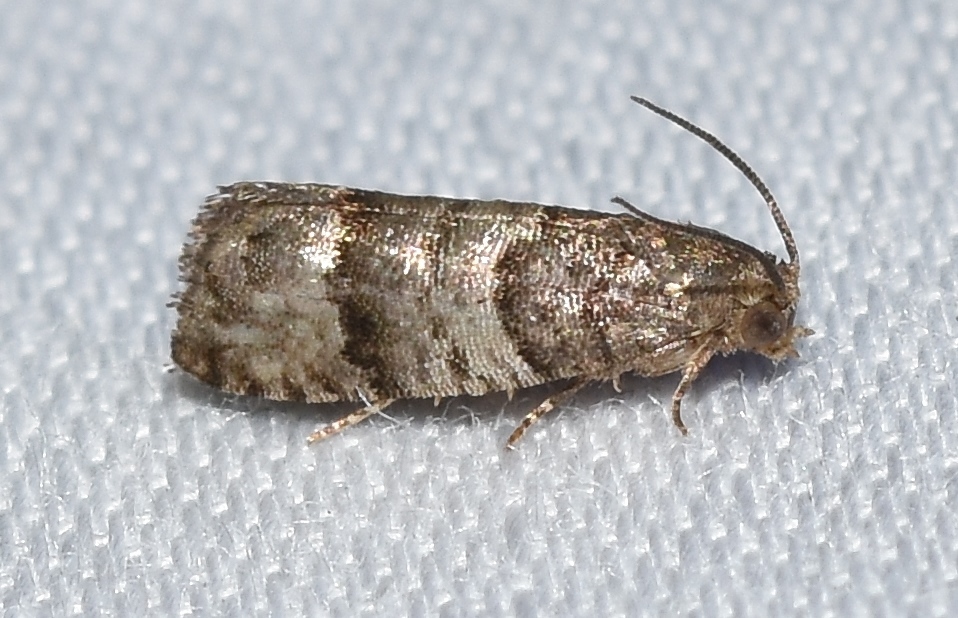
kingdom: Animalia
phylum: Arthropoda
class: Insecta
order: Lepidoptera
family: Tortricidae
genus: Larisa
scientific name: Larisa subsolana
